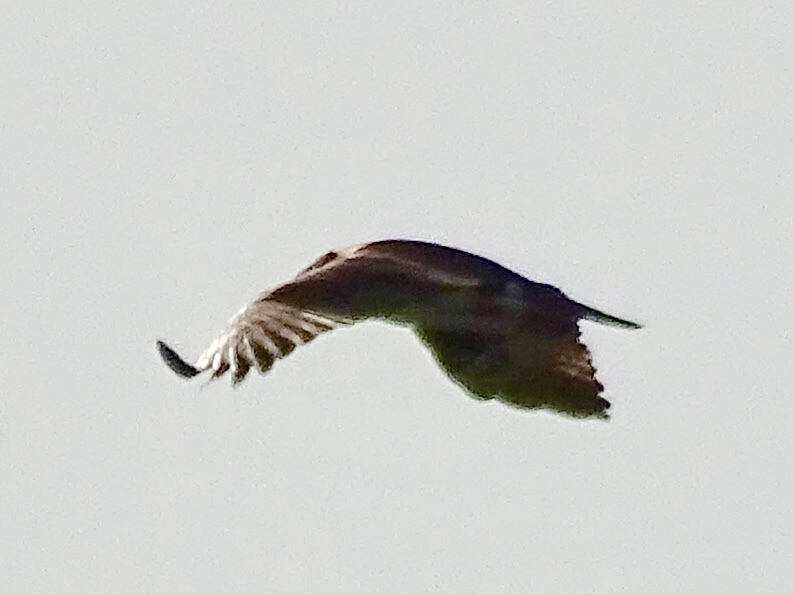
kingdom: Animalia
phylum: Chordata
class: Aves
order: Accipitriformes
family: Pandionidae
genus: Pandion
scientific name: Pandion haliaetus
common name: Osprey
